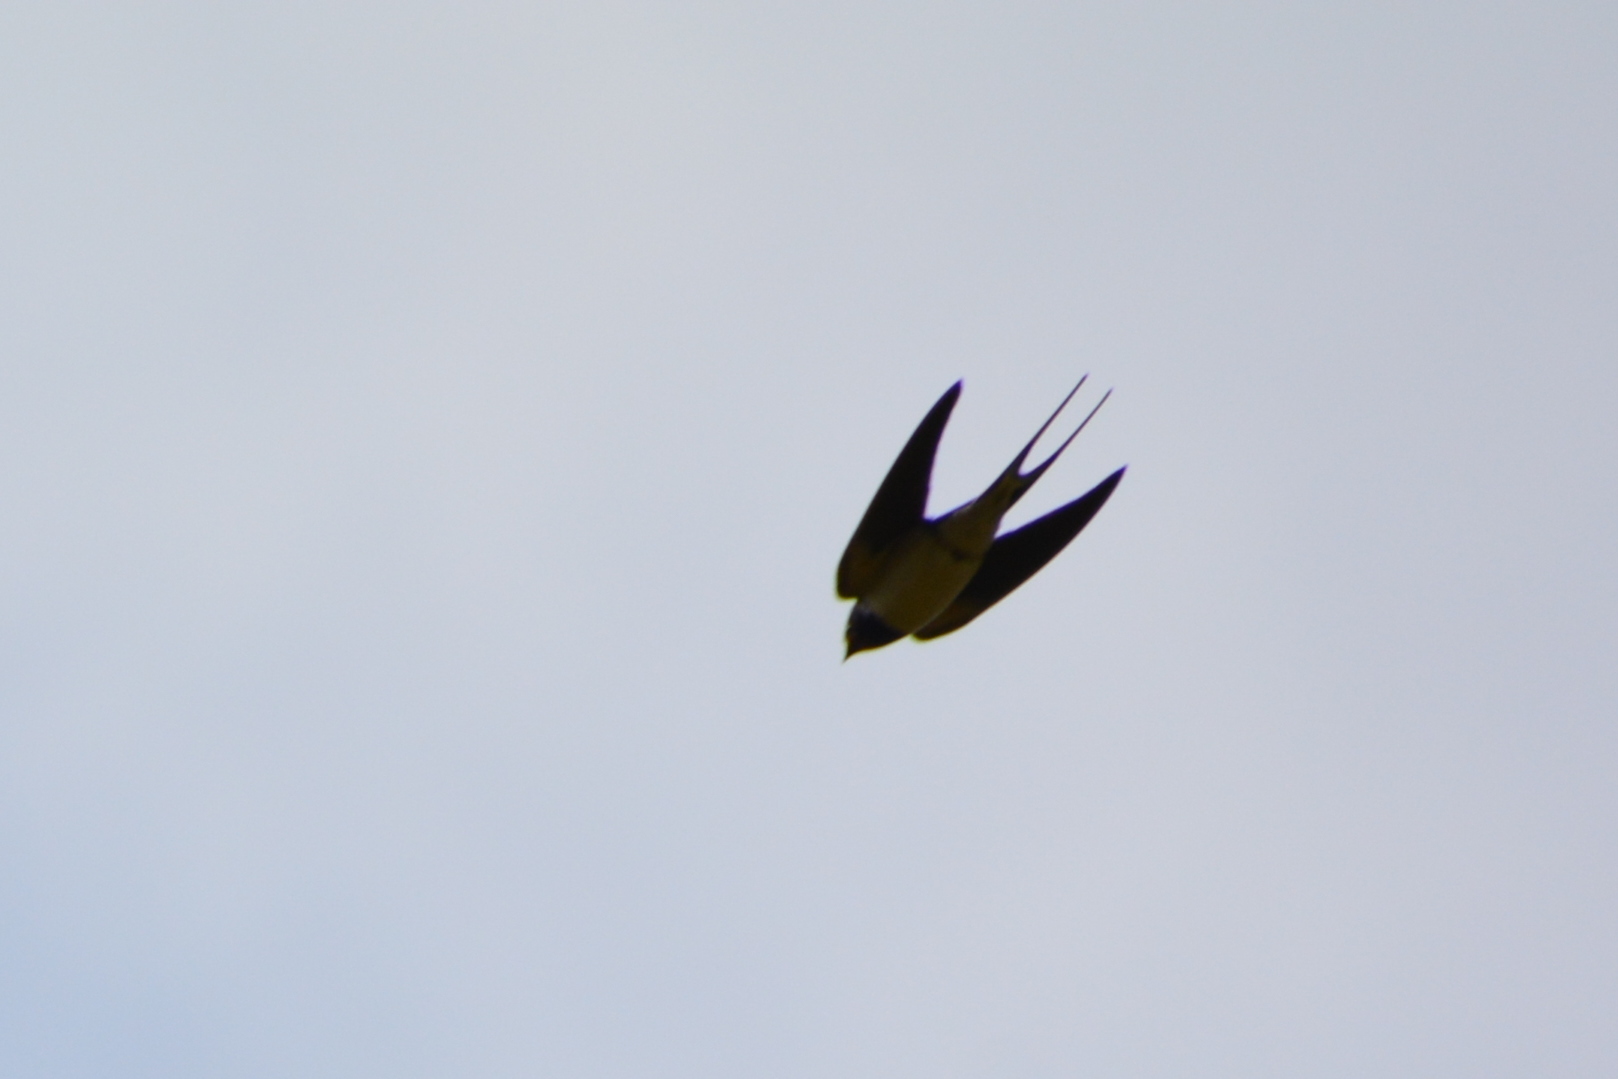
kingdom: Animalia
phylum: Chordata
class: Aves
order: Passeriformes
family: Hirundinidae
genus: Hirundo
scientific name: Hirundo rustica
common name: Barn swallow
